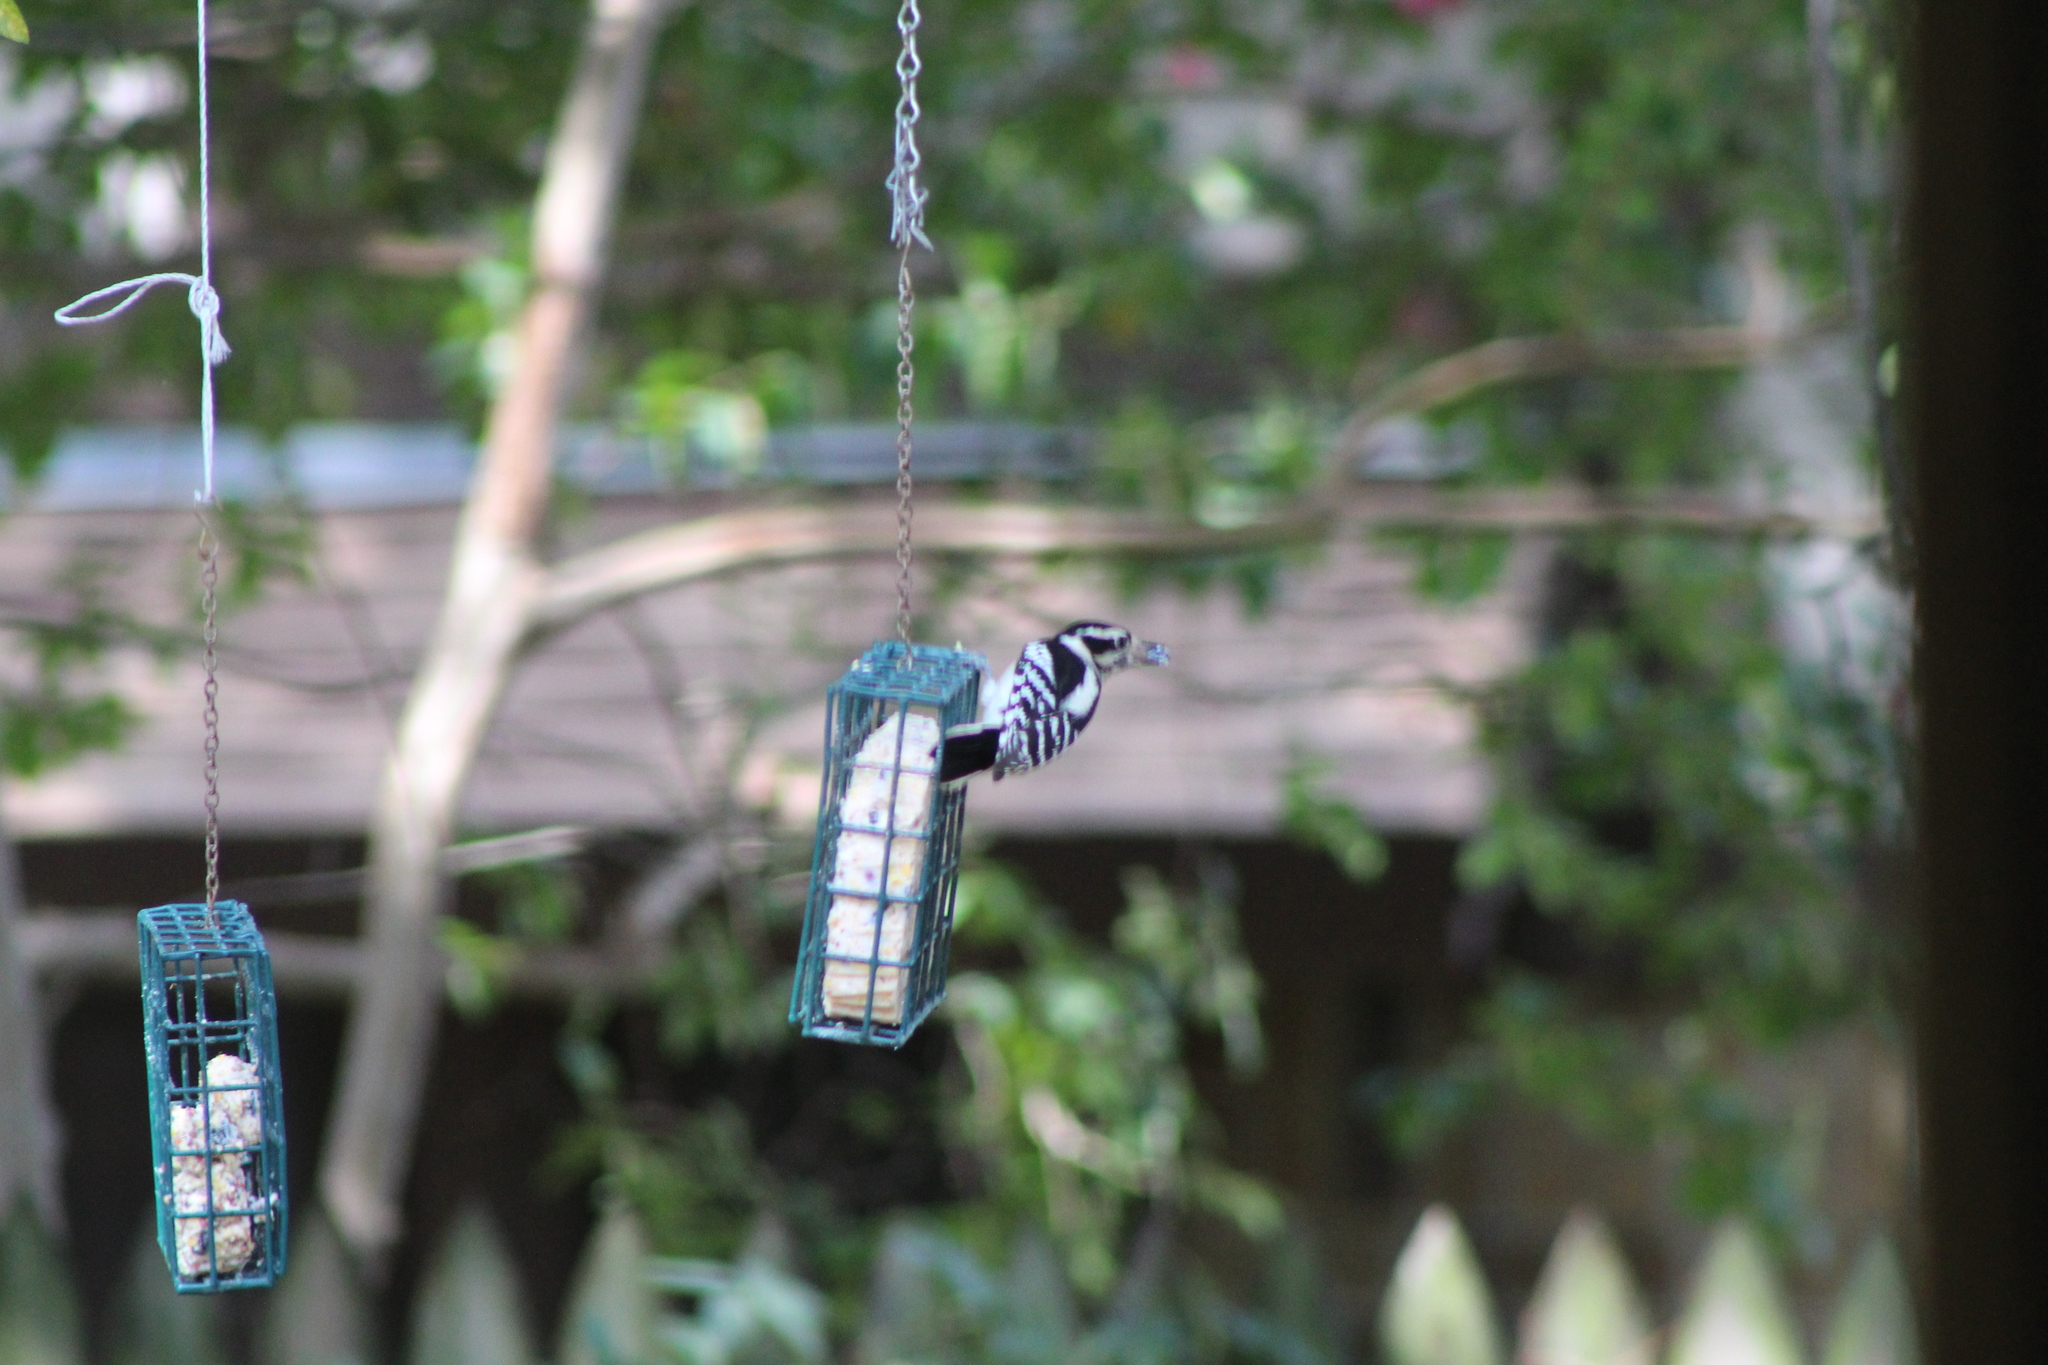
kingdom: Animalia
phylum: Chordata
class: Aves
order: Piciformes
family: Picidae
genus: Dryobates
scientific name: Dryobates pubescens
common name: Downy woodpecker
